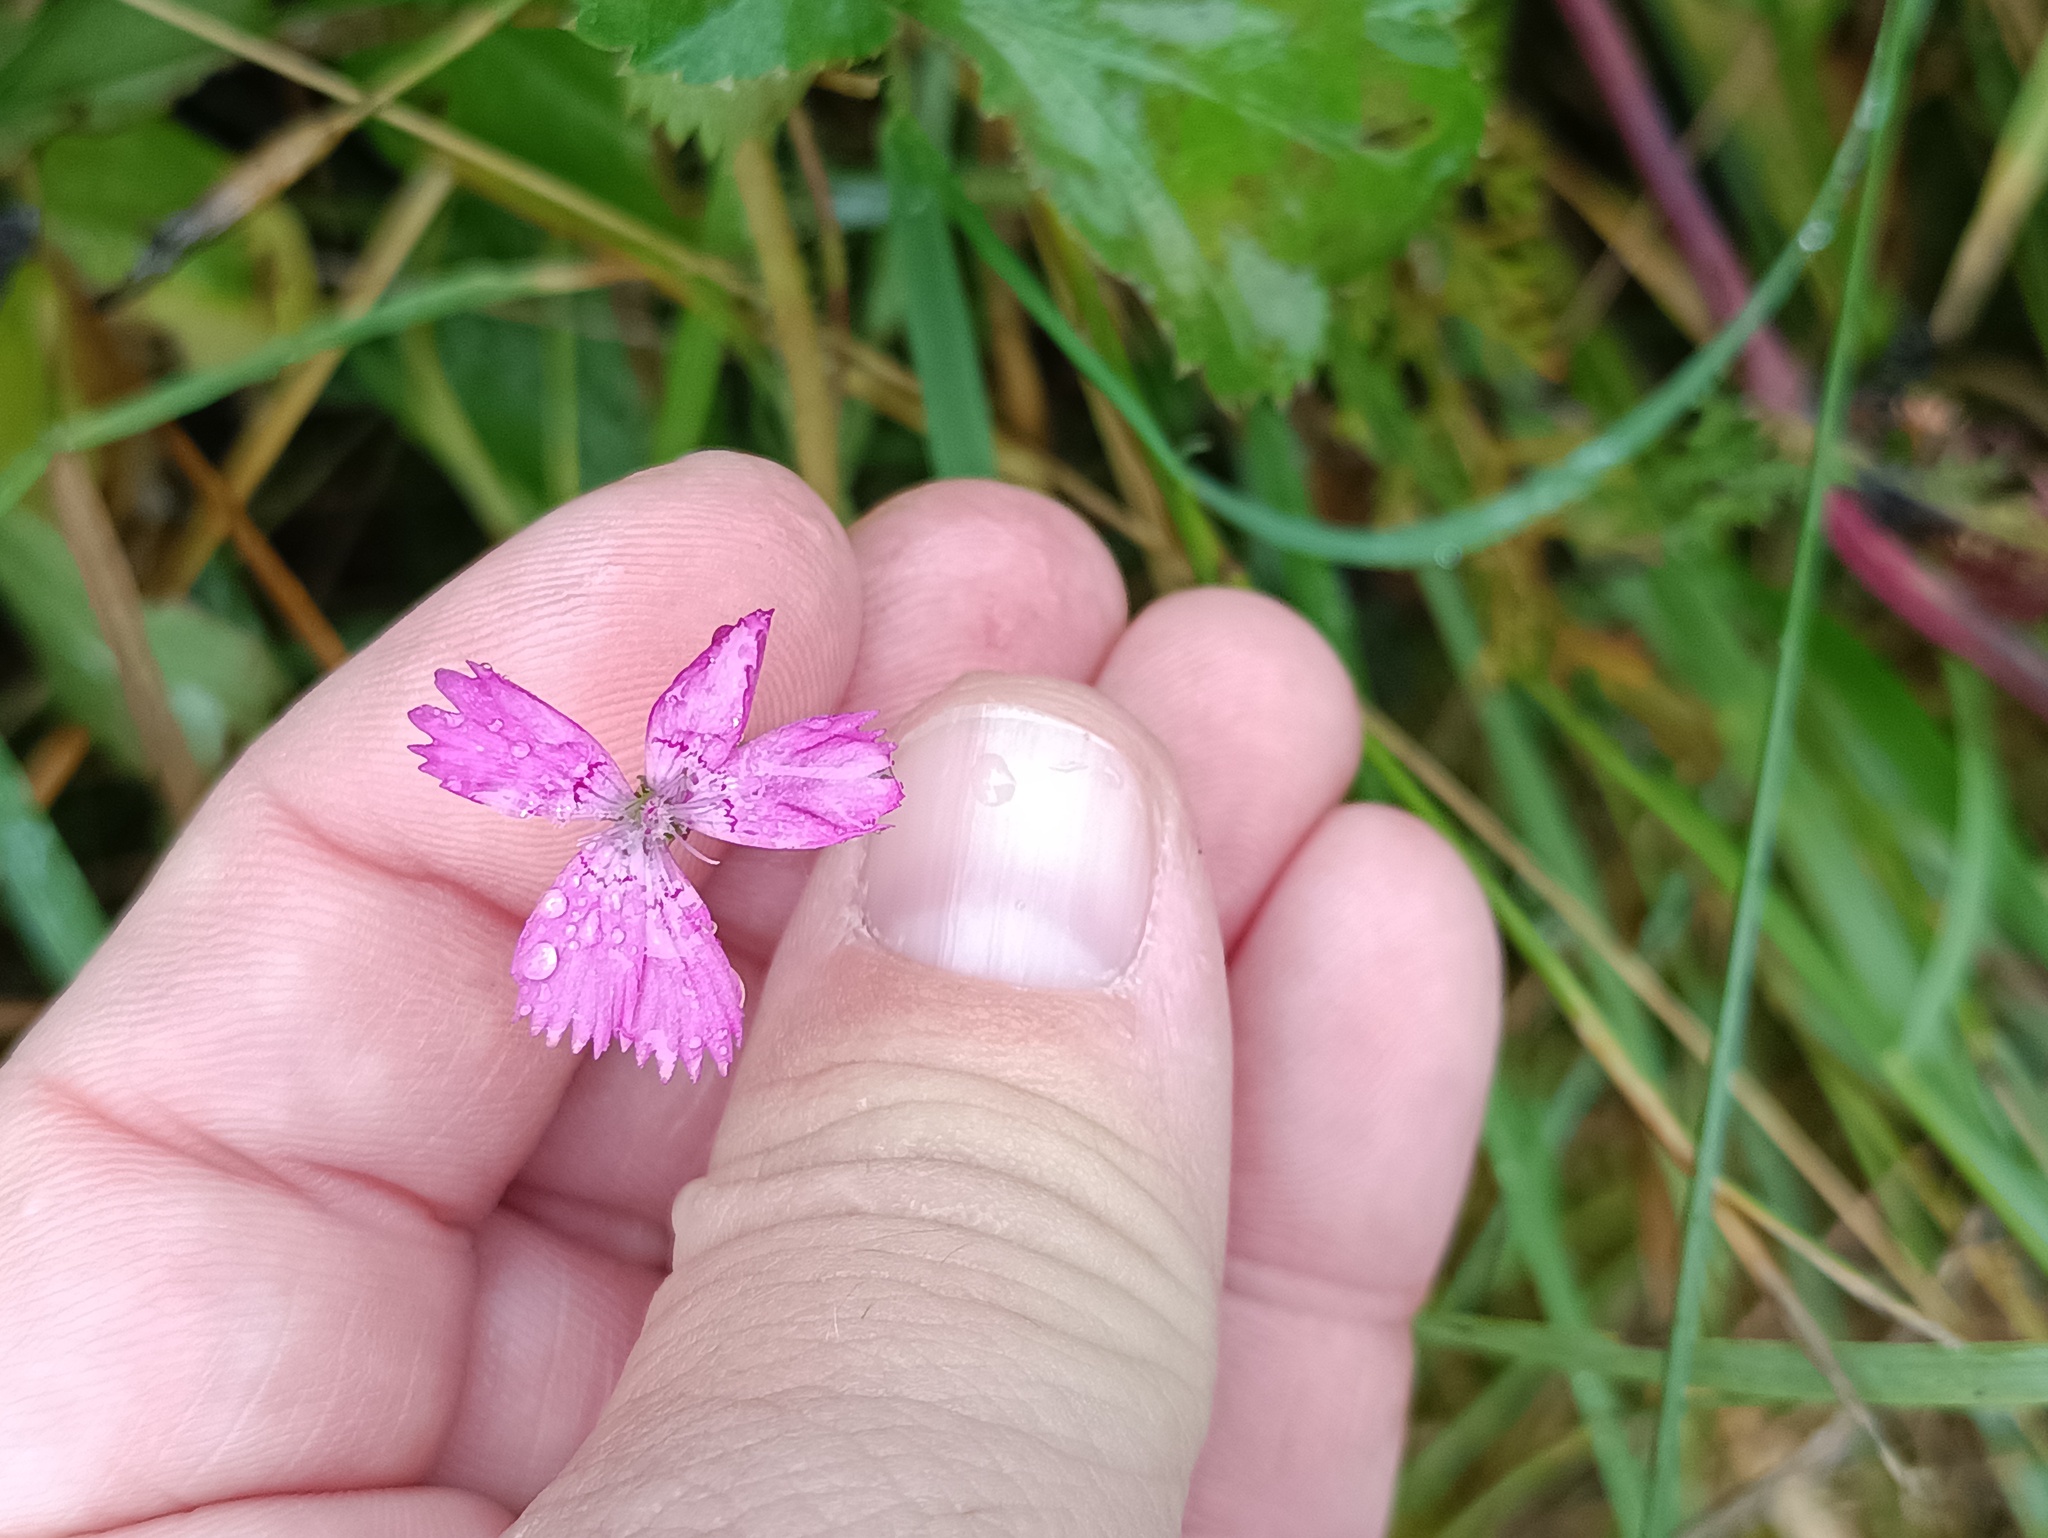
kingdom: Plantae
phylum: Tracheophyta
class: Magnoliopsida
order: Caryophyllales
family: Caryophyllaceae
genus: Dianthus
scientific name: Dianthus deltoides
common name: Maiden pink
